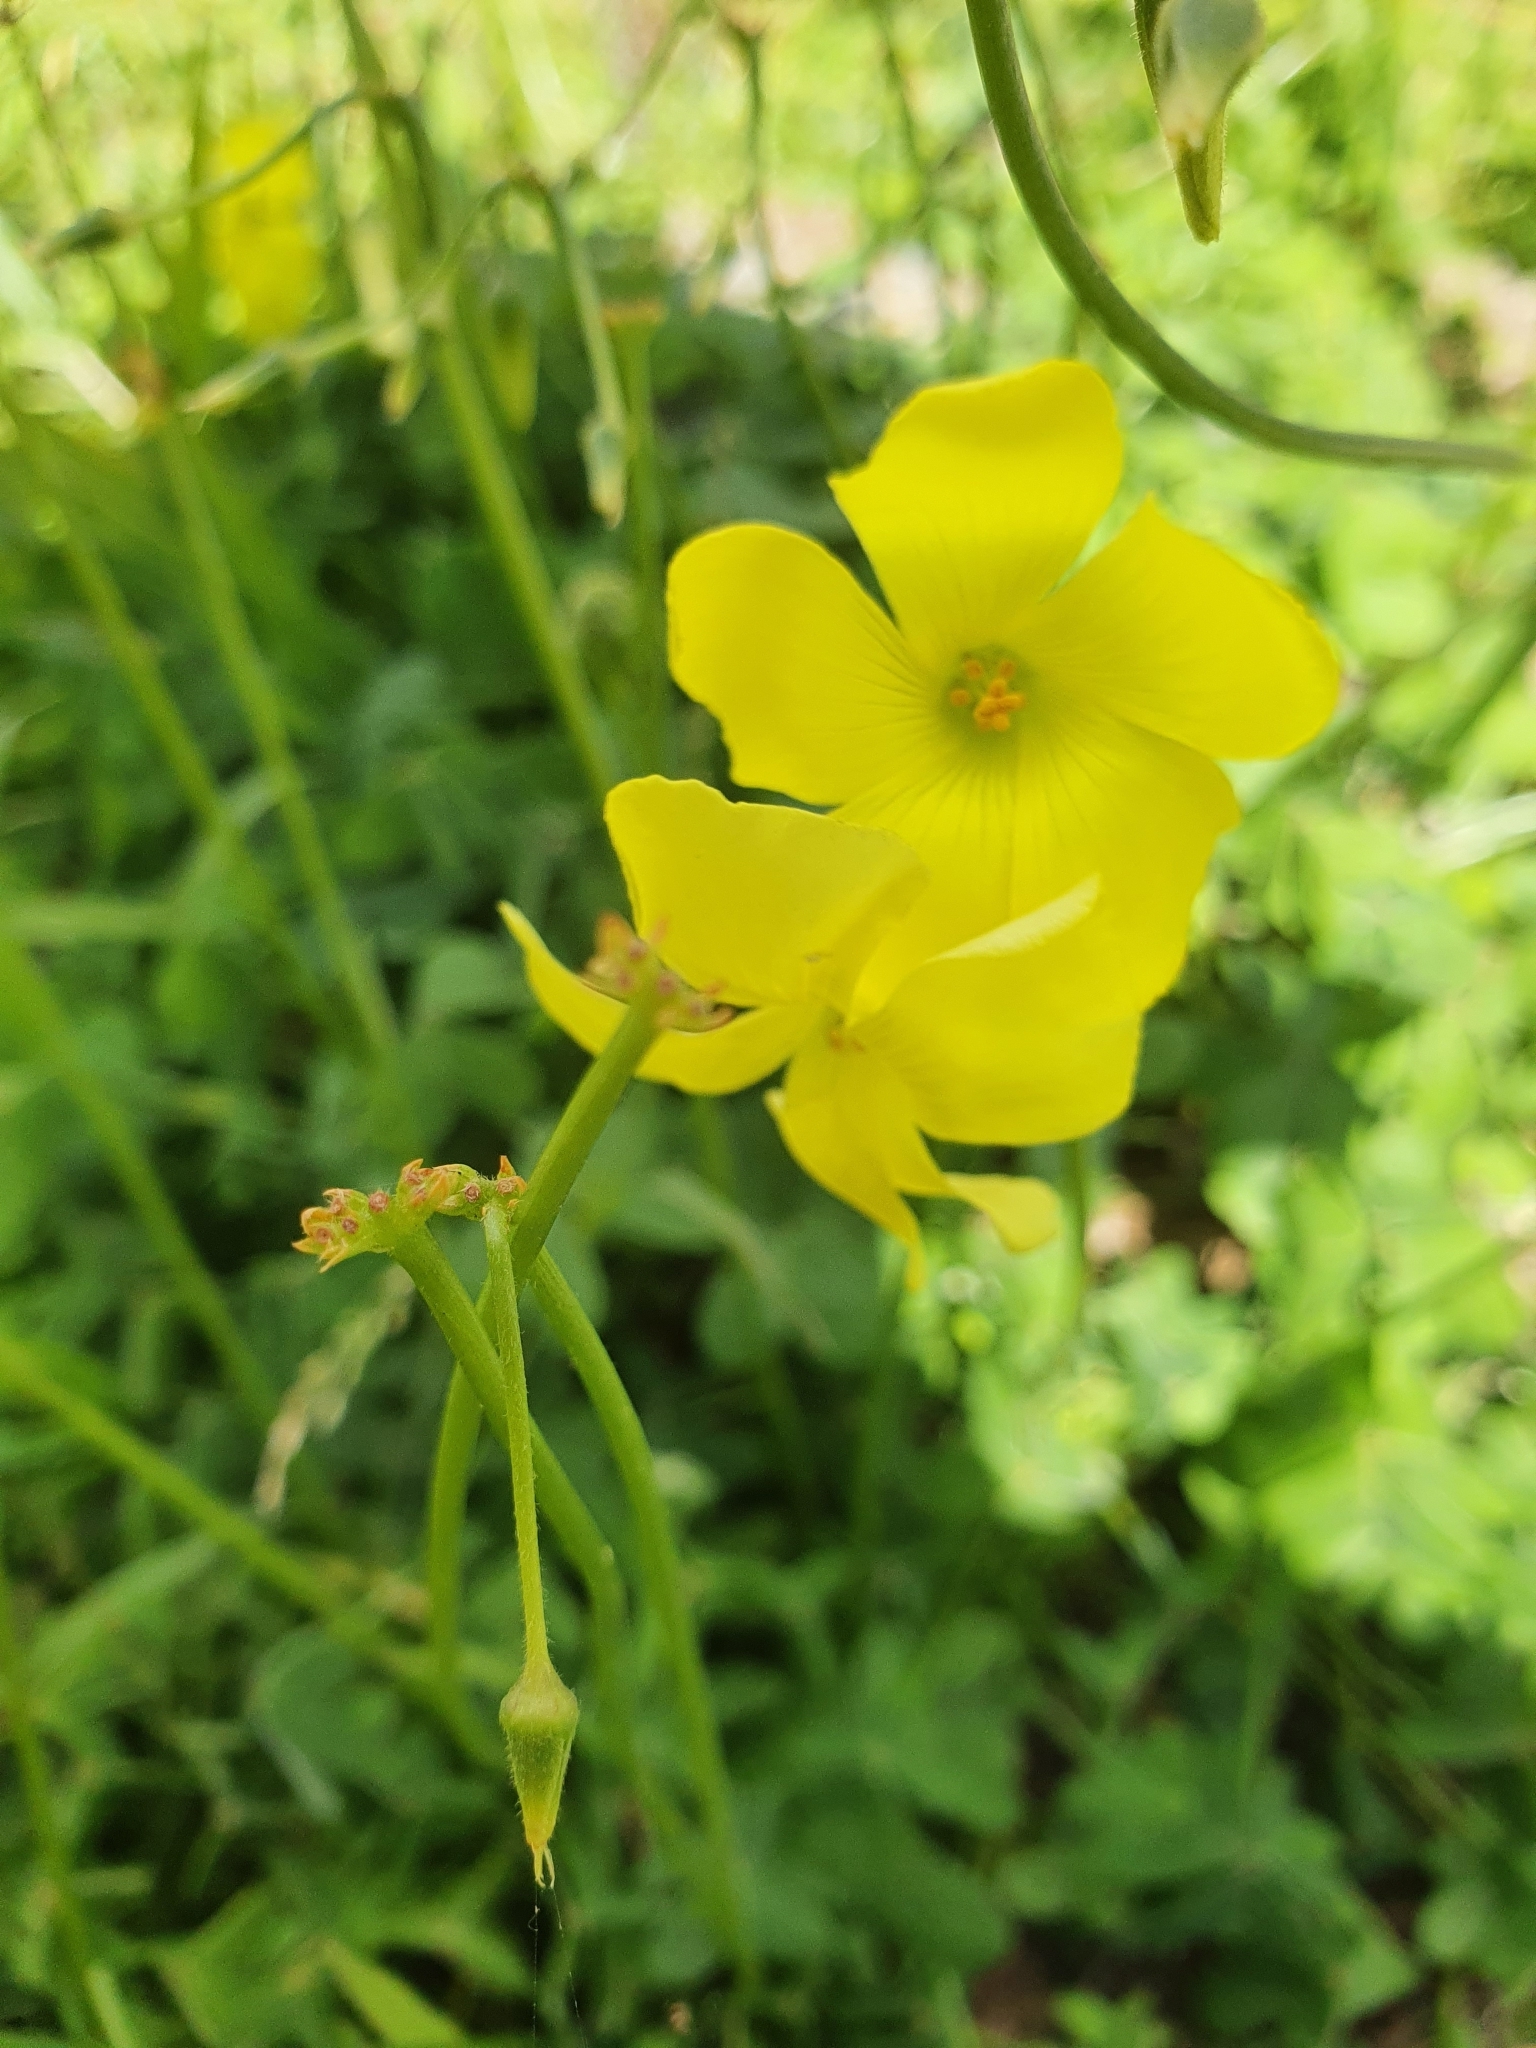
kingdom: Plantae
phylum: Tracheophyta
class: Magnoliopsida
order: Oxalidales
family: Oxalidaceae
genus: Oxalis
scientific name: Oxalis pes-caprae
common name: Bermuda-buttercup
